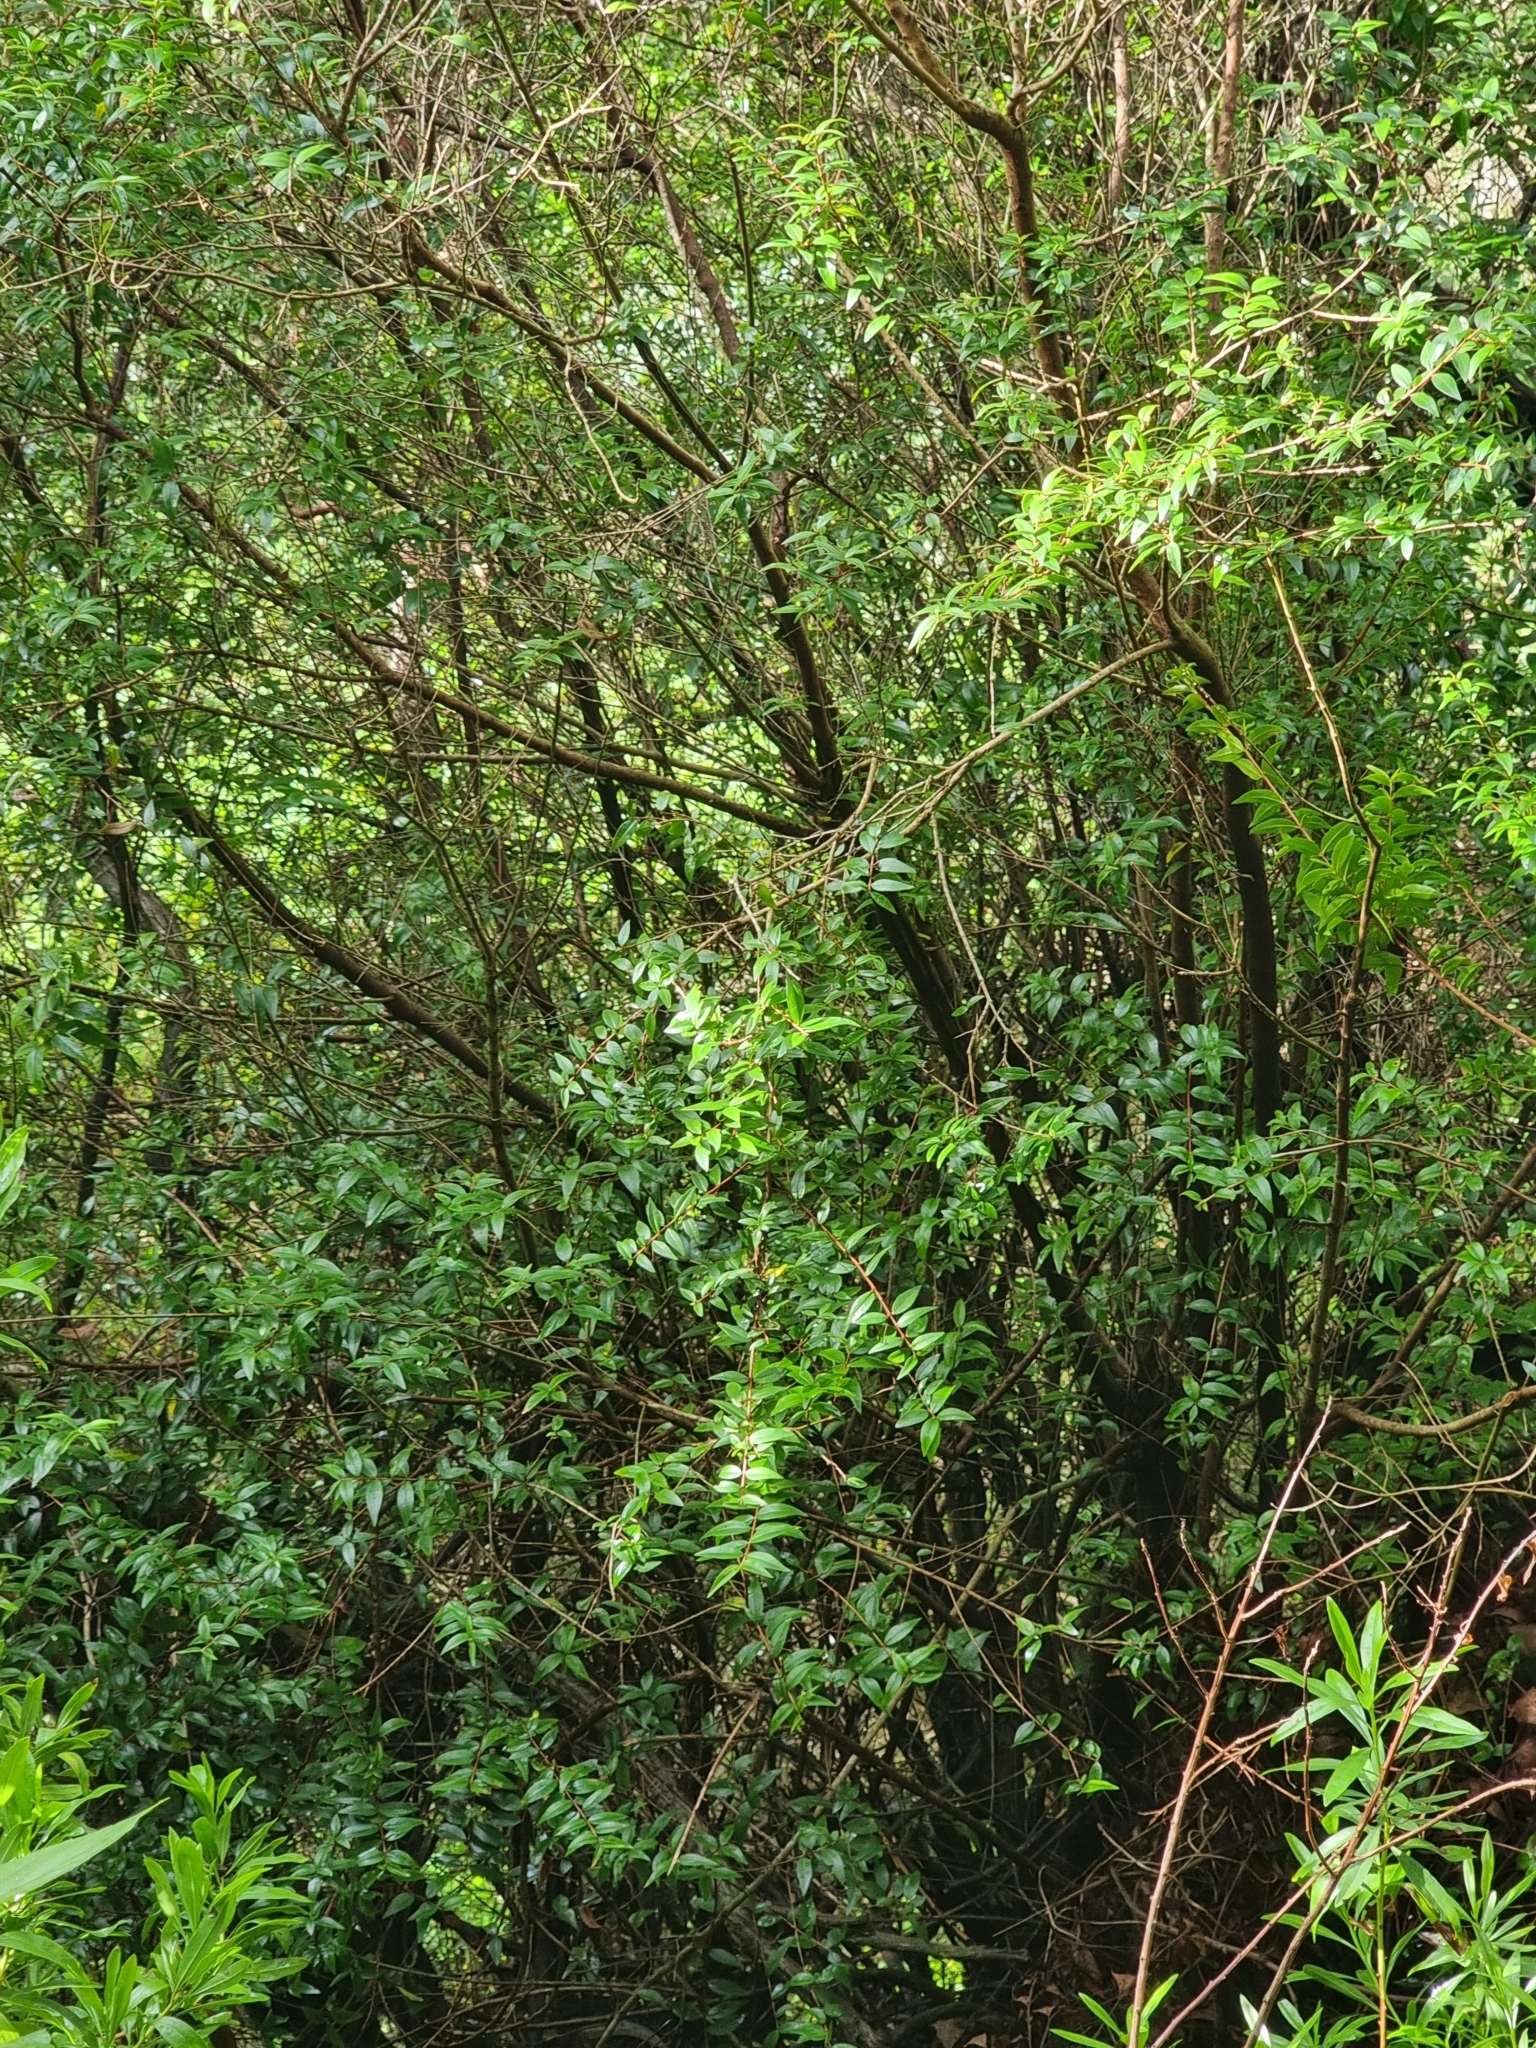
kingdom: Plantae
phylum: Tracheophyta
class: Magnoliopsida
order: Myrtales
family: Myrtaceae
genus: Myrtus
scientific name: Myrtus communis
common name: Myrtle
